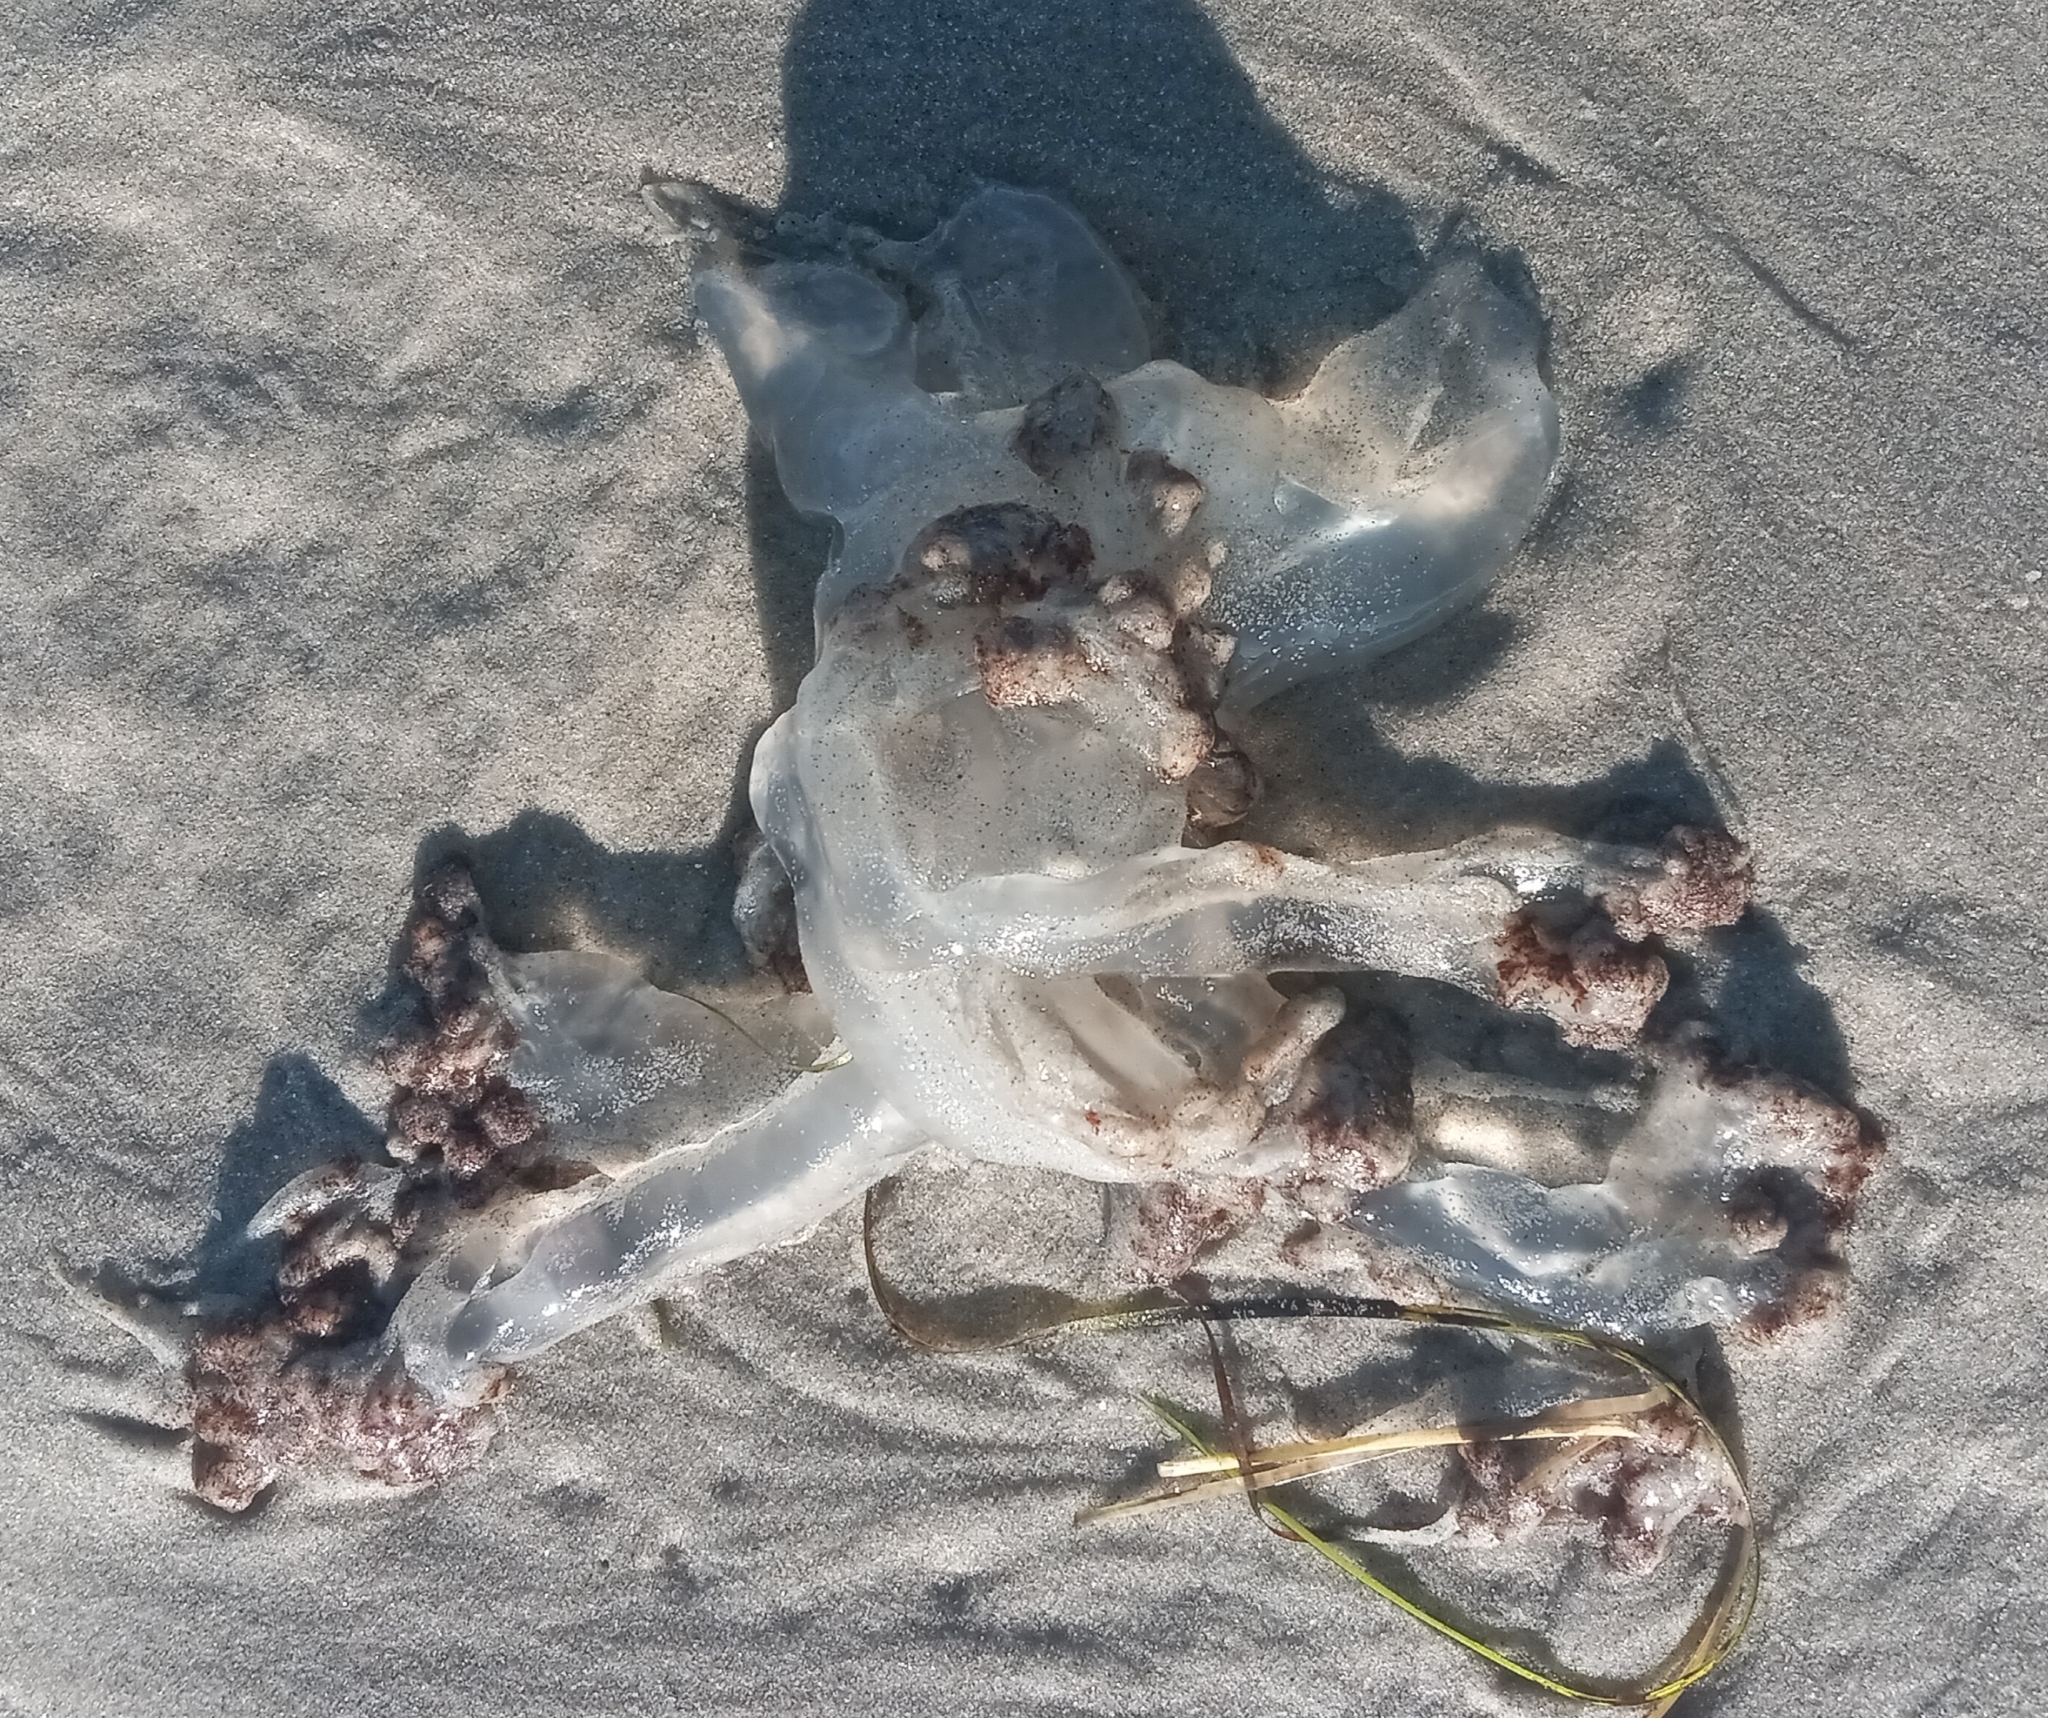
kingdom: Animalia
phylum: Cnidaria
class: Scyphozoa
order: Rhizostomeae
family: Rhizostomatidae
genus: Rhopilema
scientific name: Rhopilema verrilli
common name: Mushroom cap jellyfish
